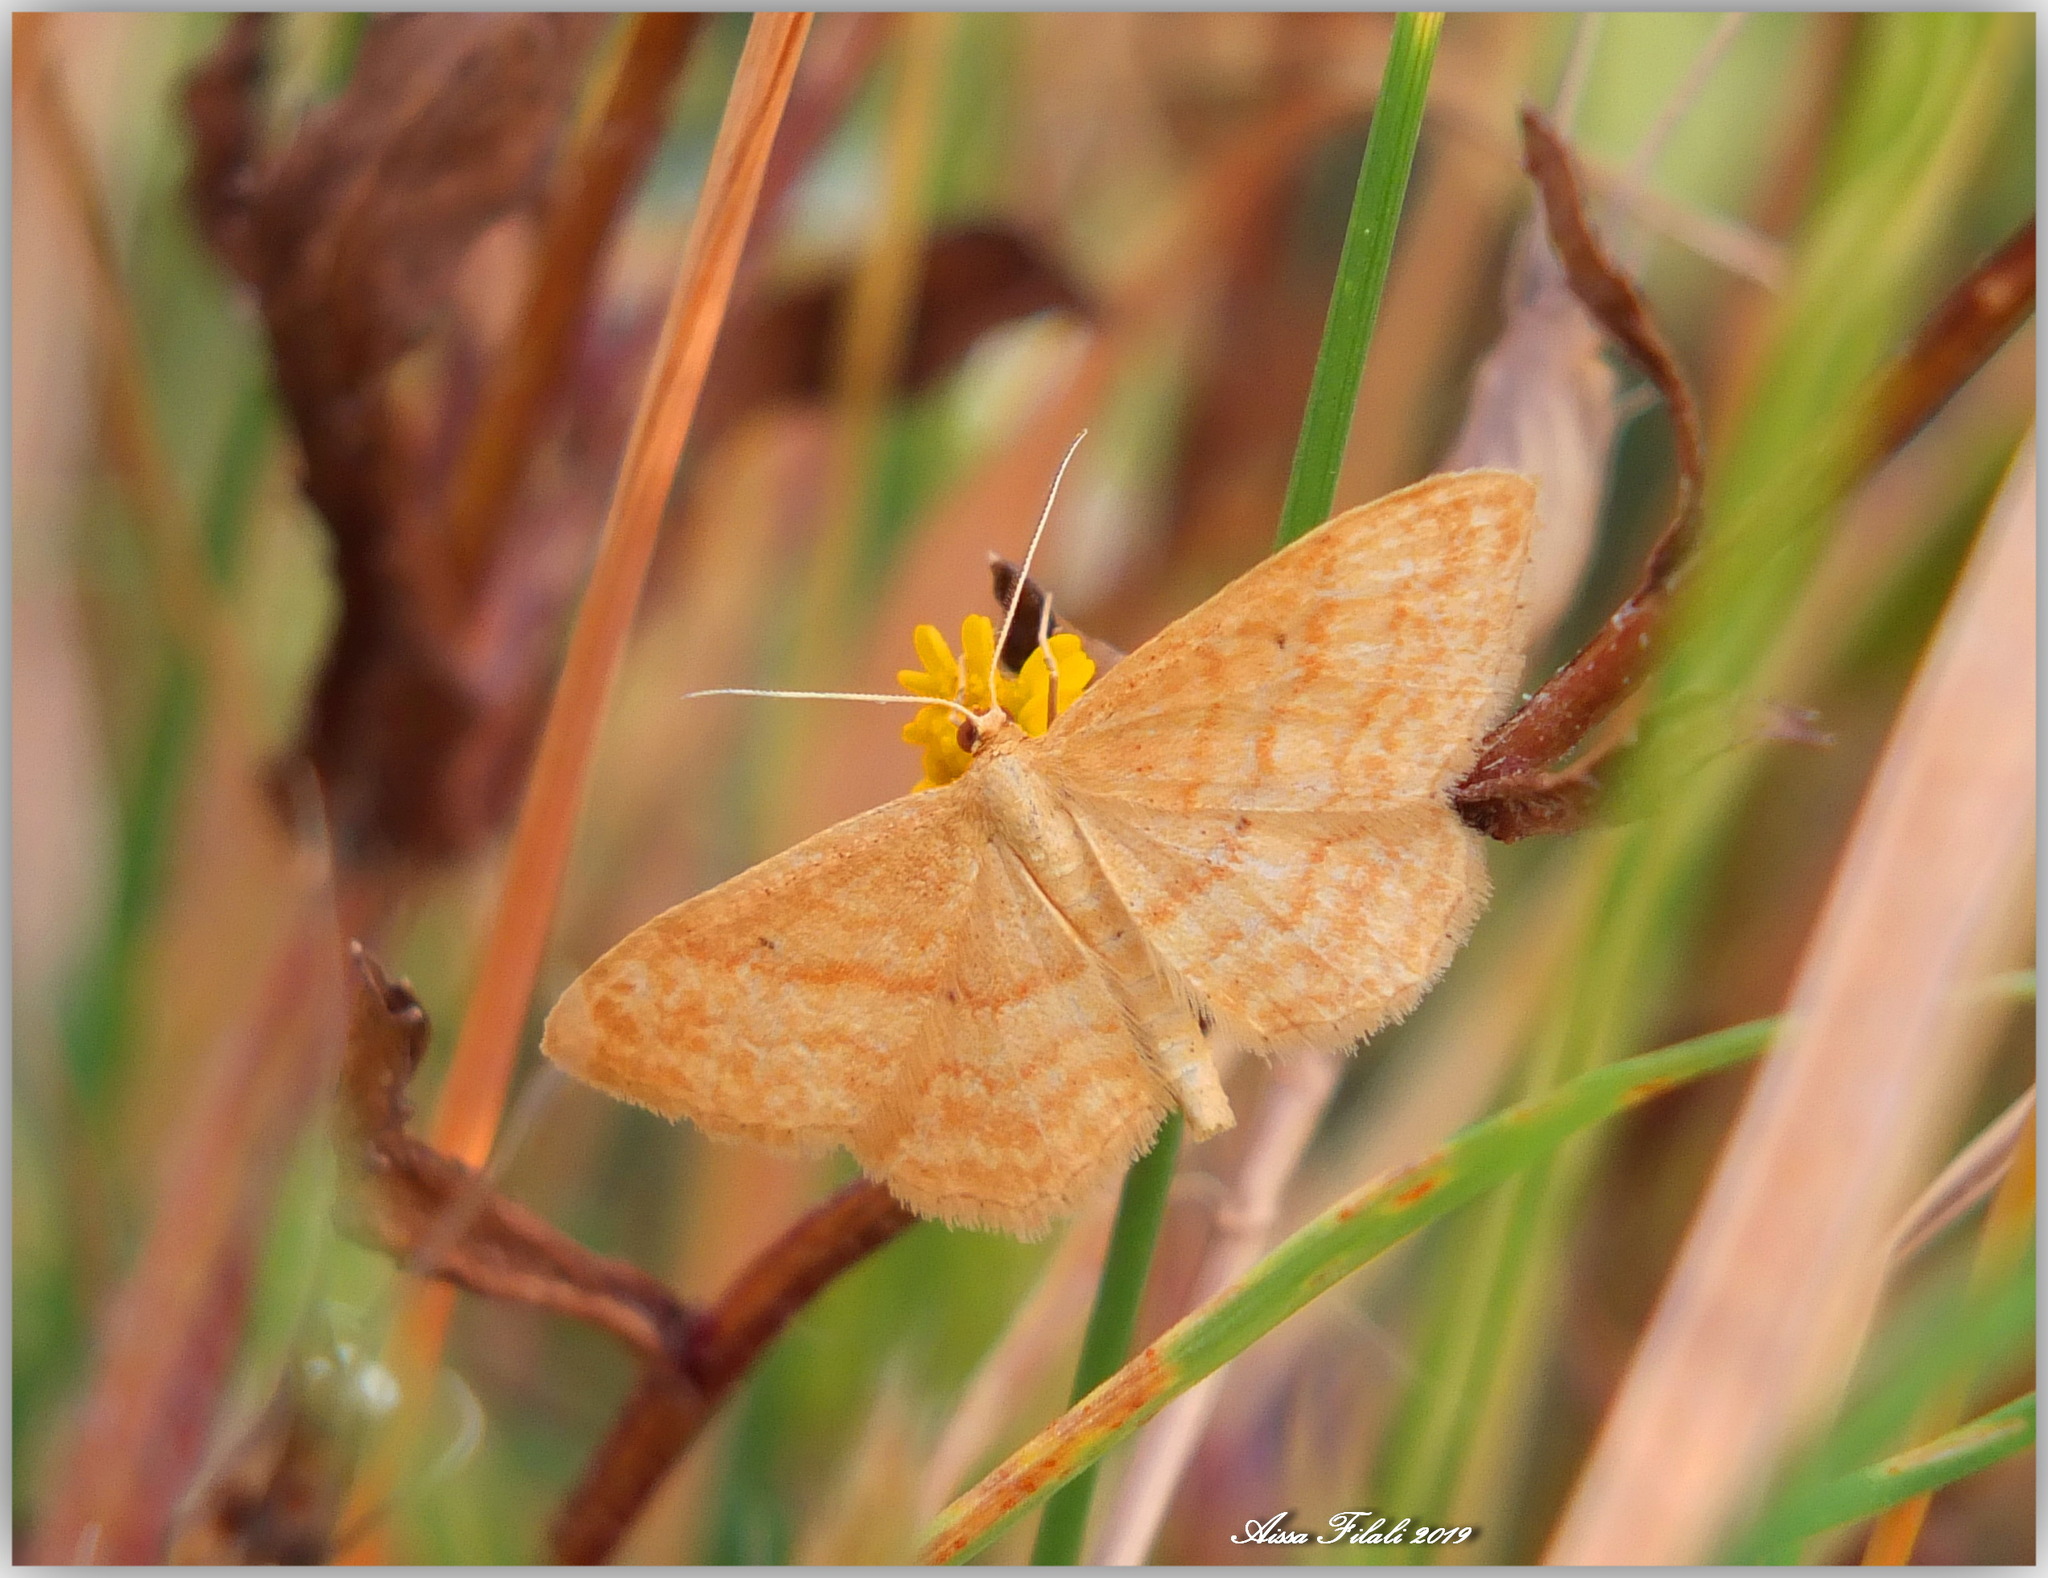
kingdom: Animalia
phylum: Arthropoda
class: Insecta
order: Lepidoptera
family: Geometridae
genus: Idaea
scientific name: Idaea ochrata
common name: Bright wave
